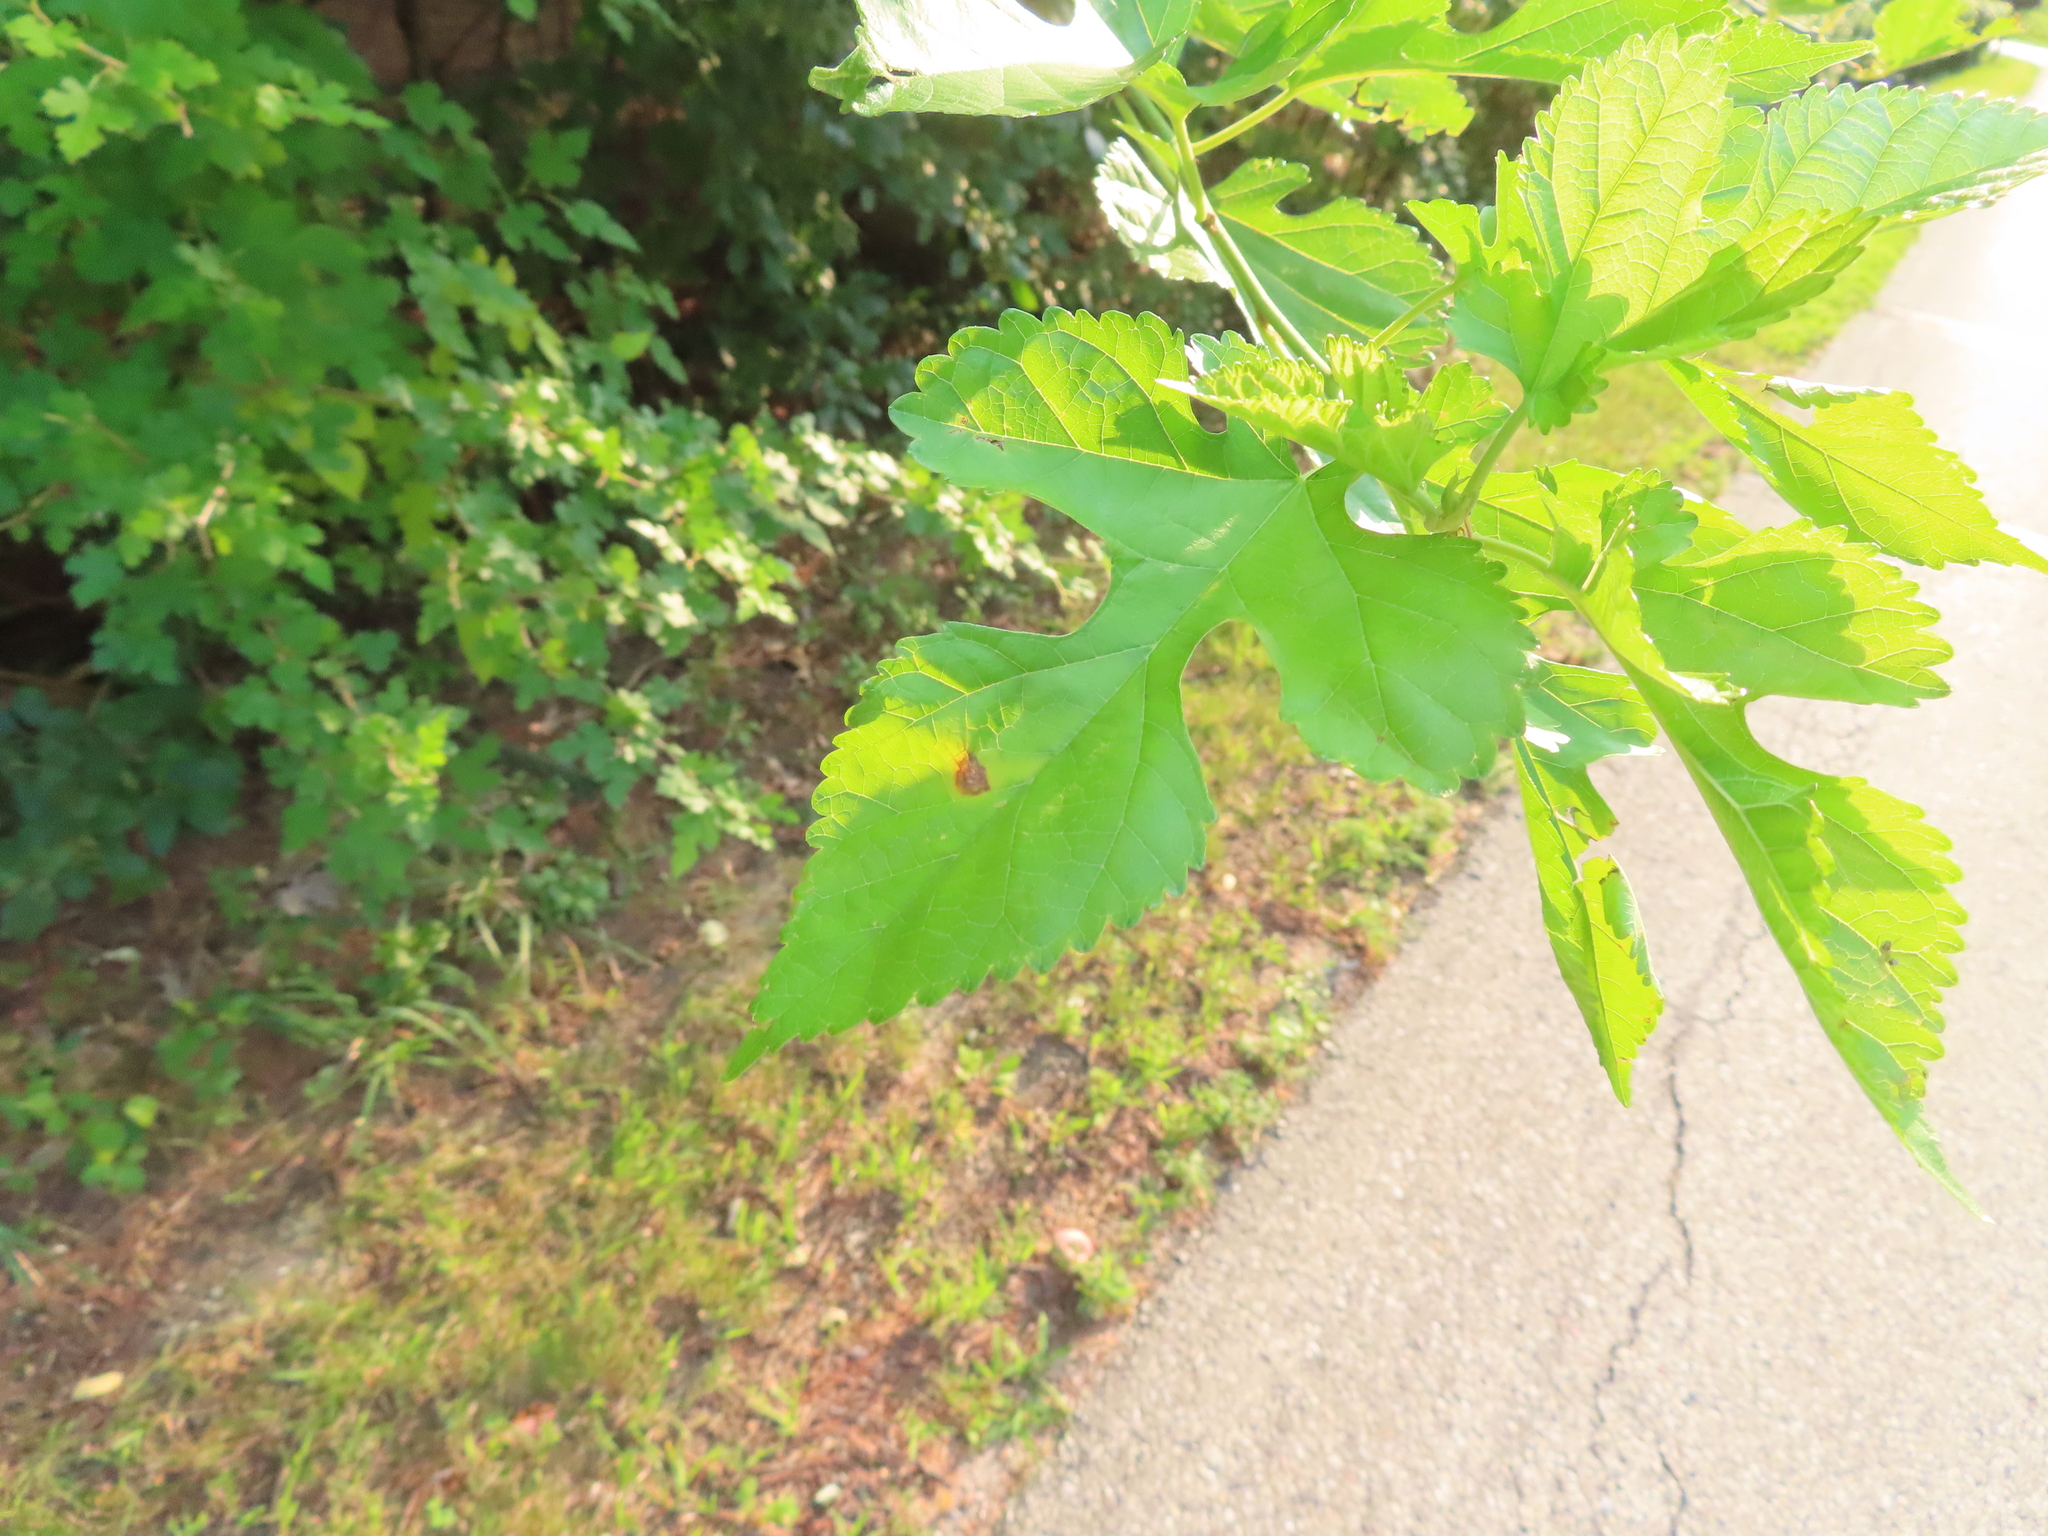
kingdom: Plantae
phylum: Tracheophyta
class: Magnoliopsida
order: Rosales
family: Moraceae
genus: Morus
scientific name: Morus alba
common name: White mulberry
